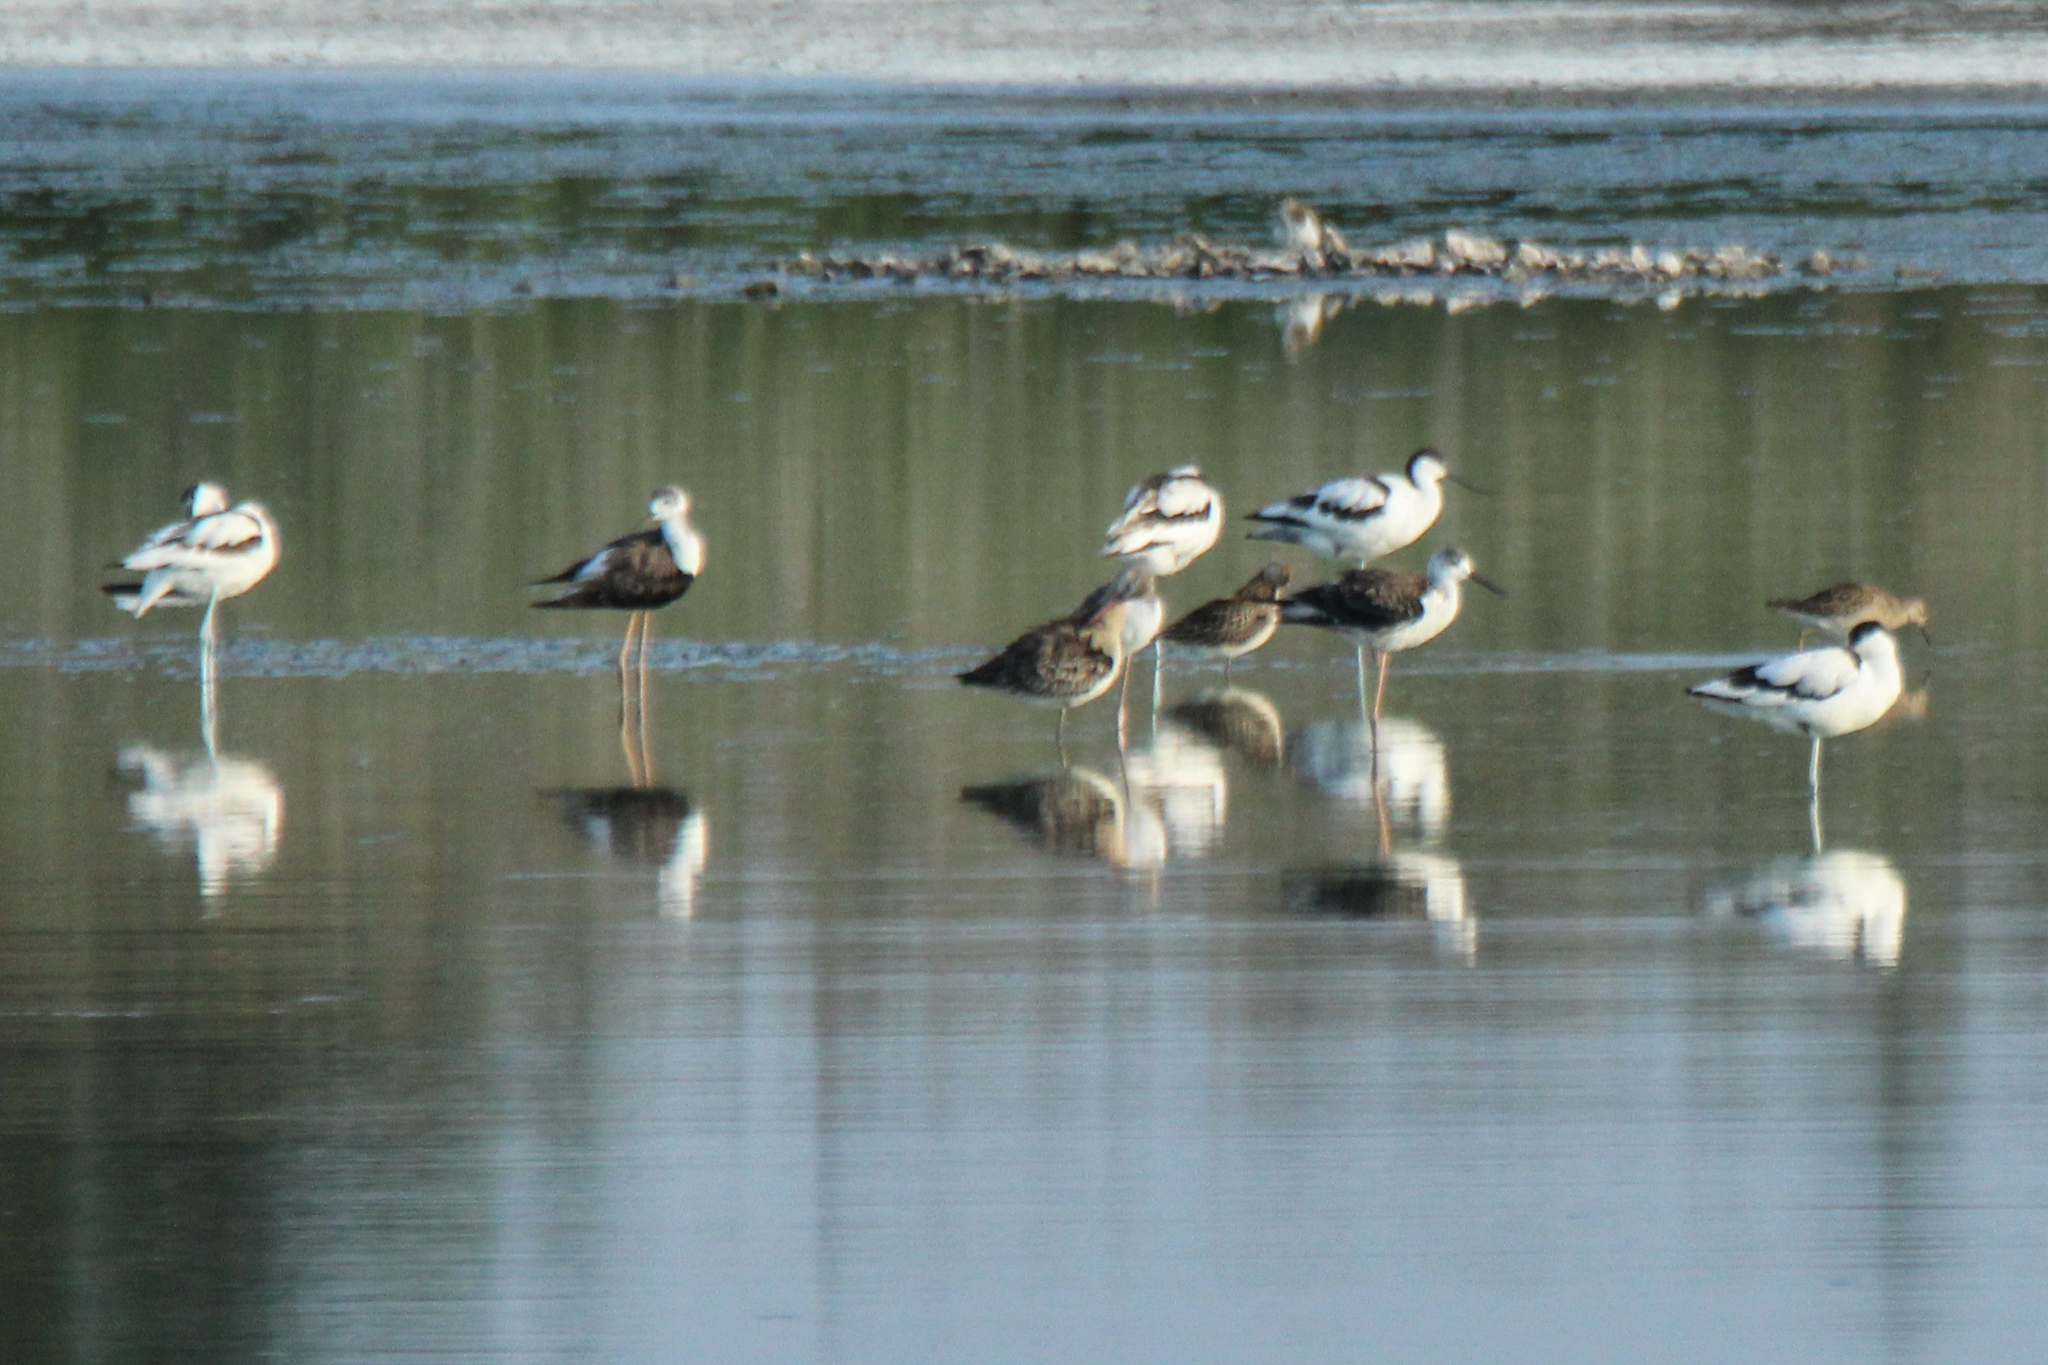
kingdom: Animalia
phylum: Chordata
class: Aves
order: Charadriiformes
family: Recurvirostridae
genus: Recurvirostra
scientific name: Recurvirostra avosetta
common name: Pied avocet
